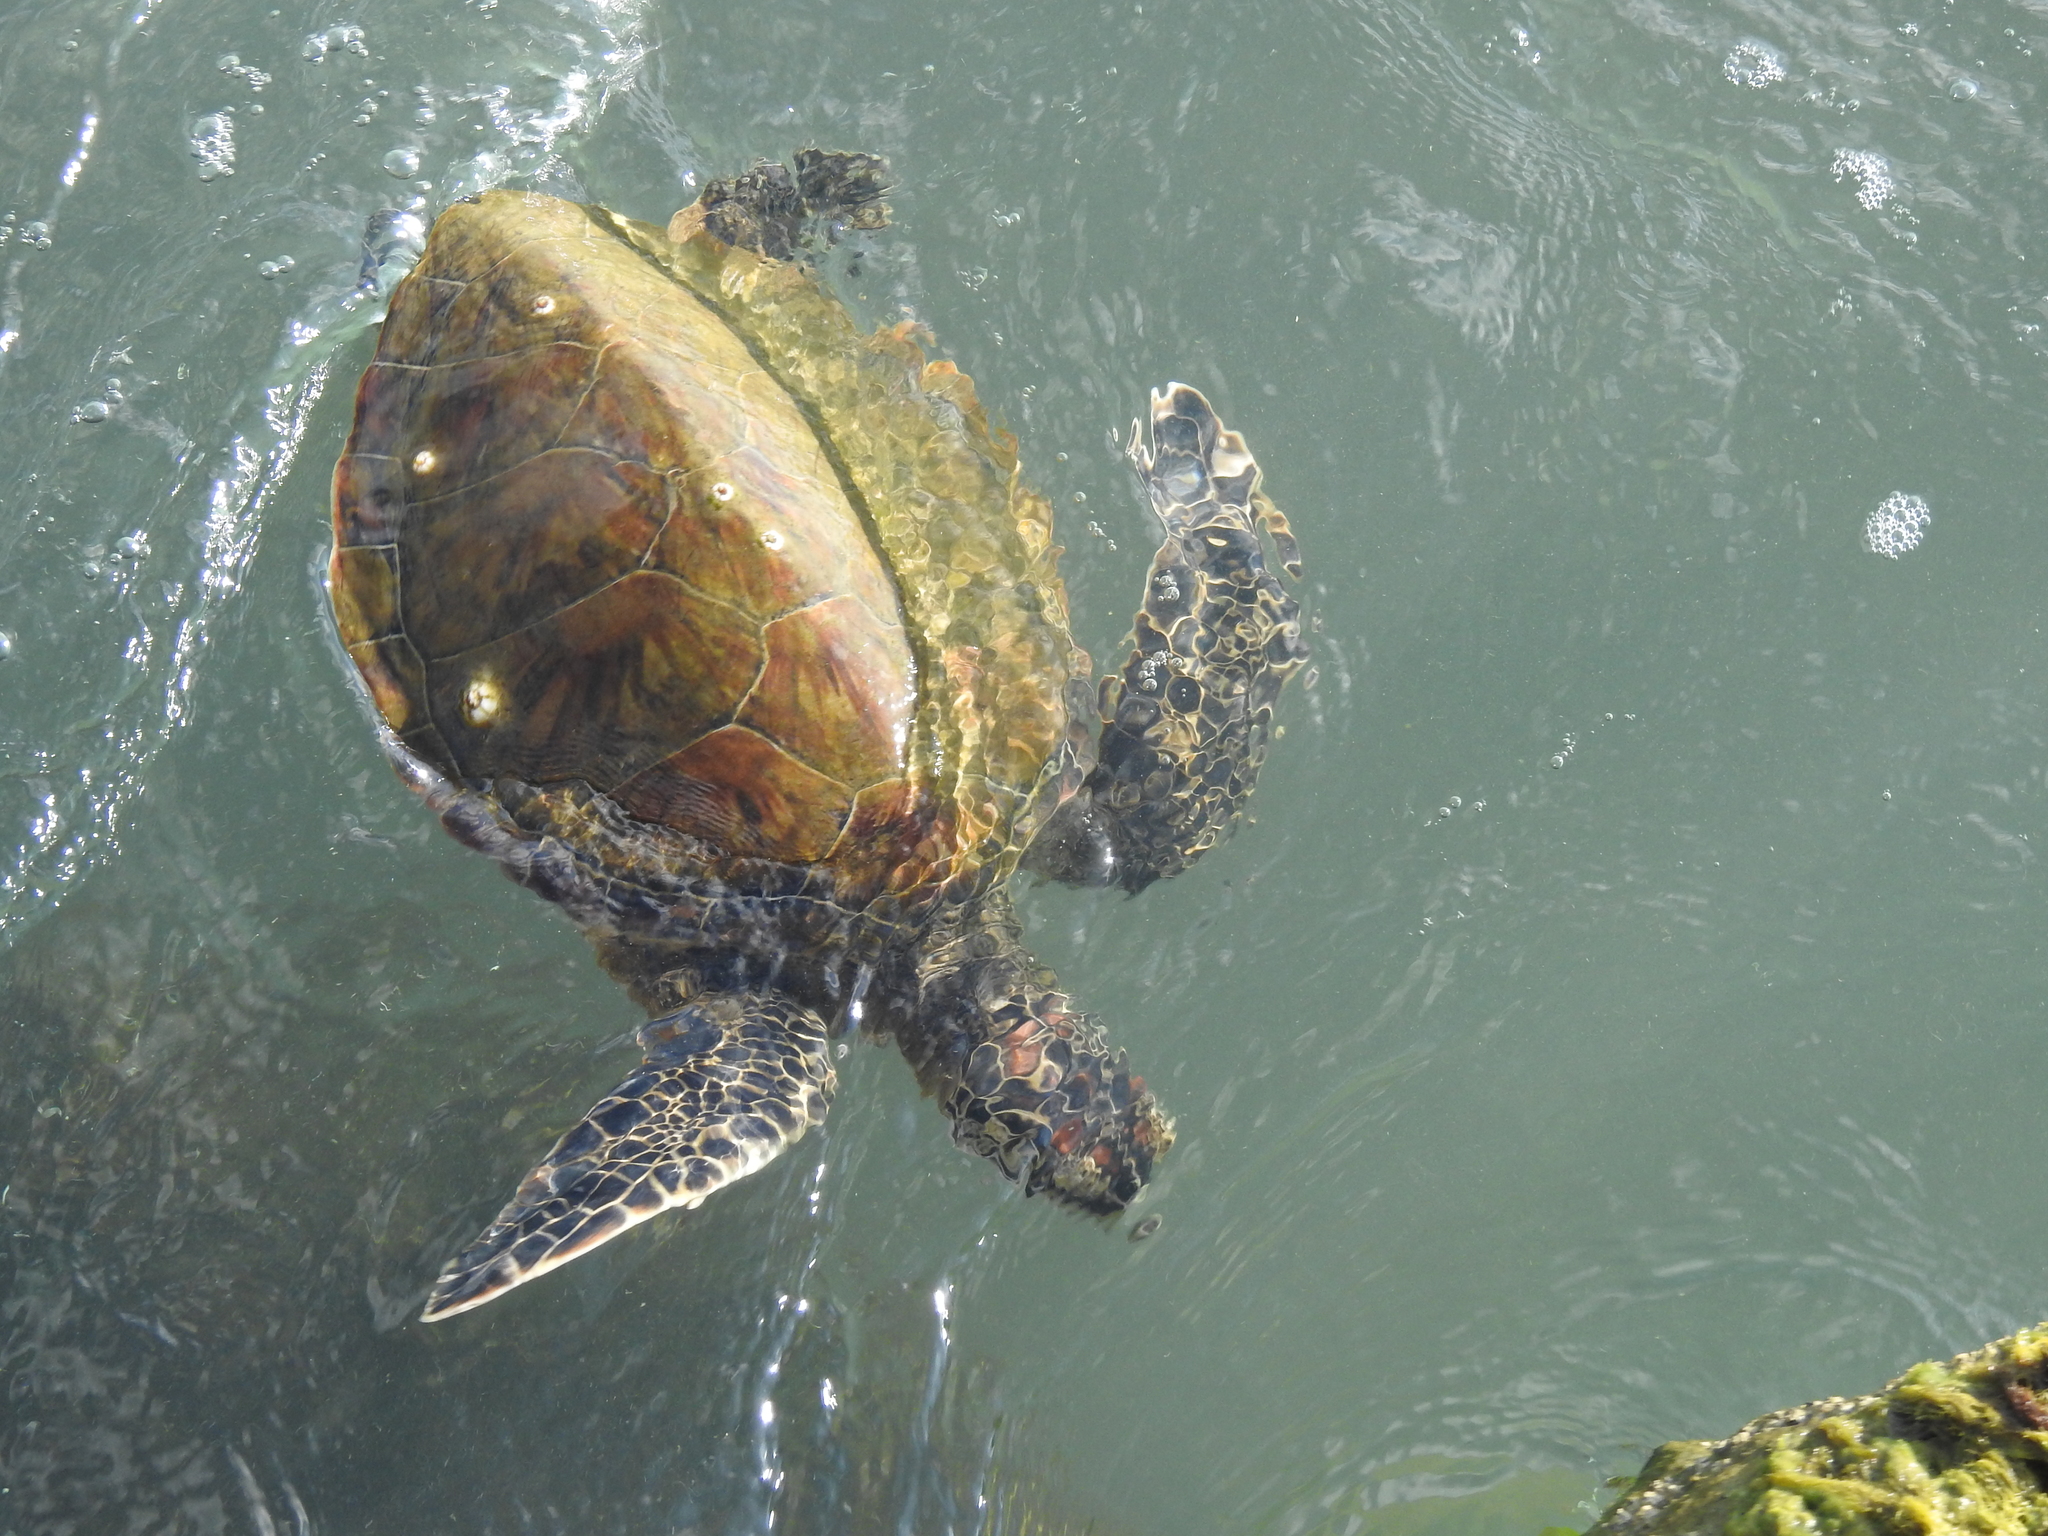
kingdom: Animalia
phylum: Chordata
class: Testudines
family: Cheloniidae
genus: Chelonia
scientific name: Chelonia mydas
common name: Green turtle
